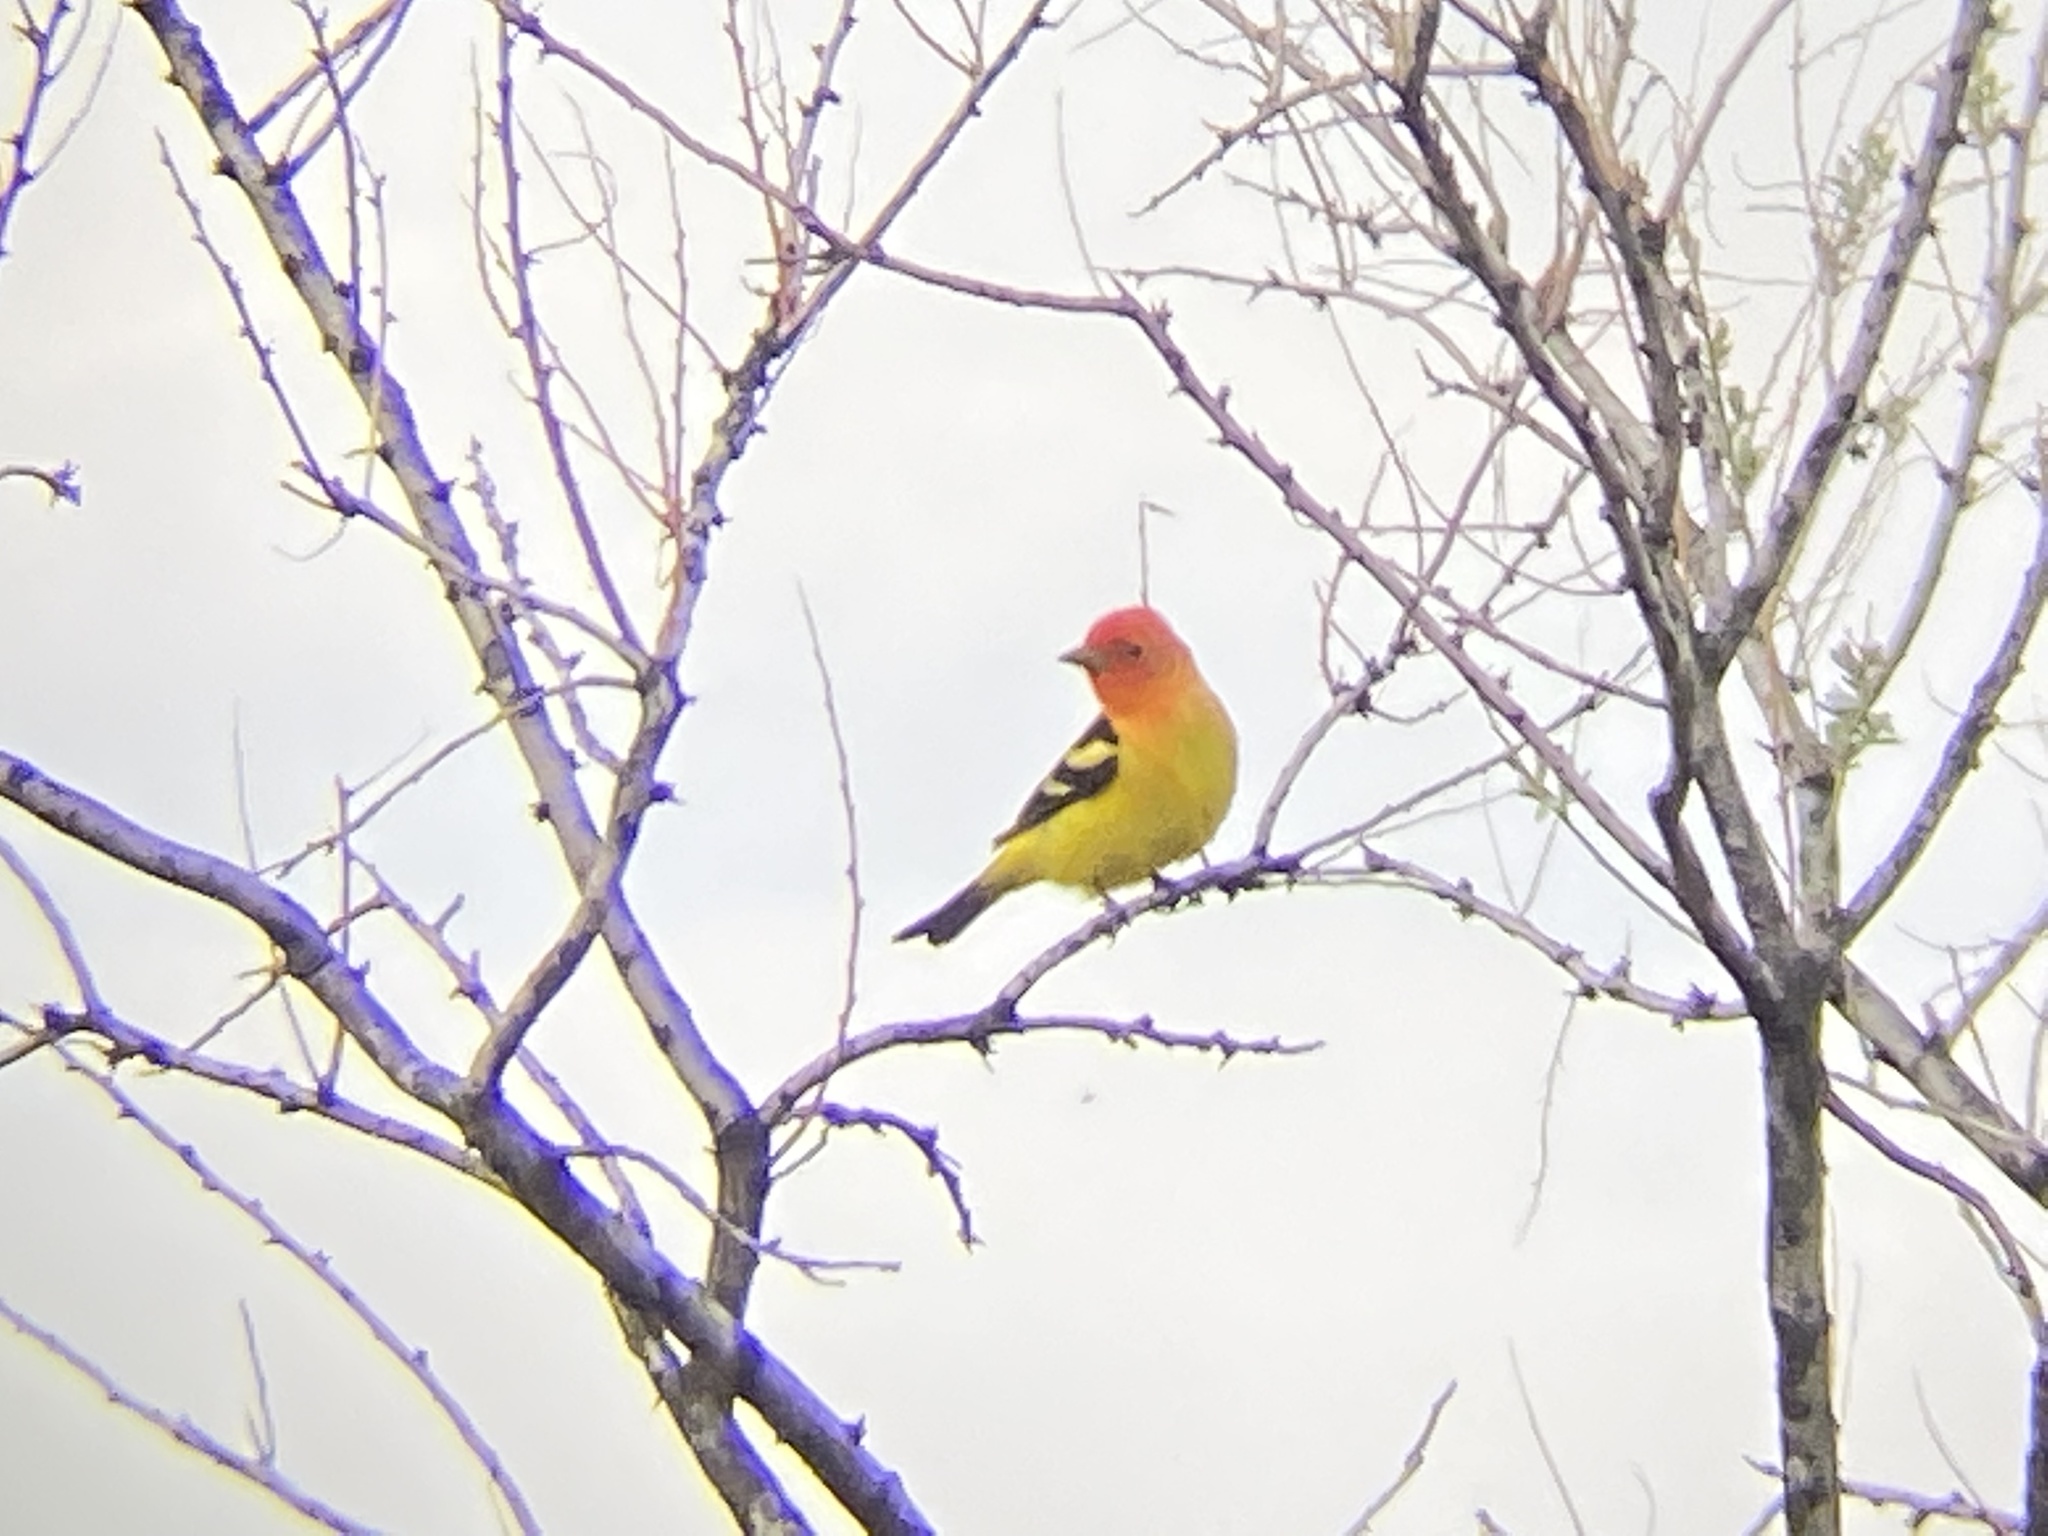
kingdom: Animalia
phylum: Chordata
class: Aves
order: Passeriformes
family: Cardinalidae
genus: Piranga
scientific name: Piranga ludoviciana
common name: Western tanager
